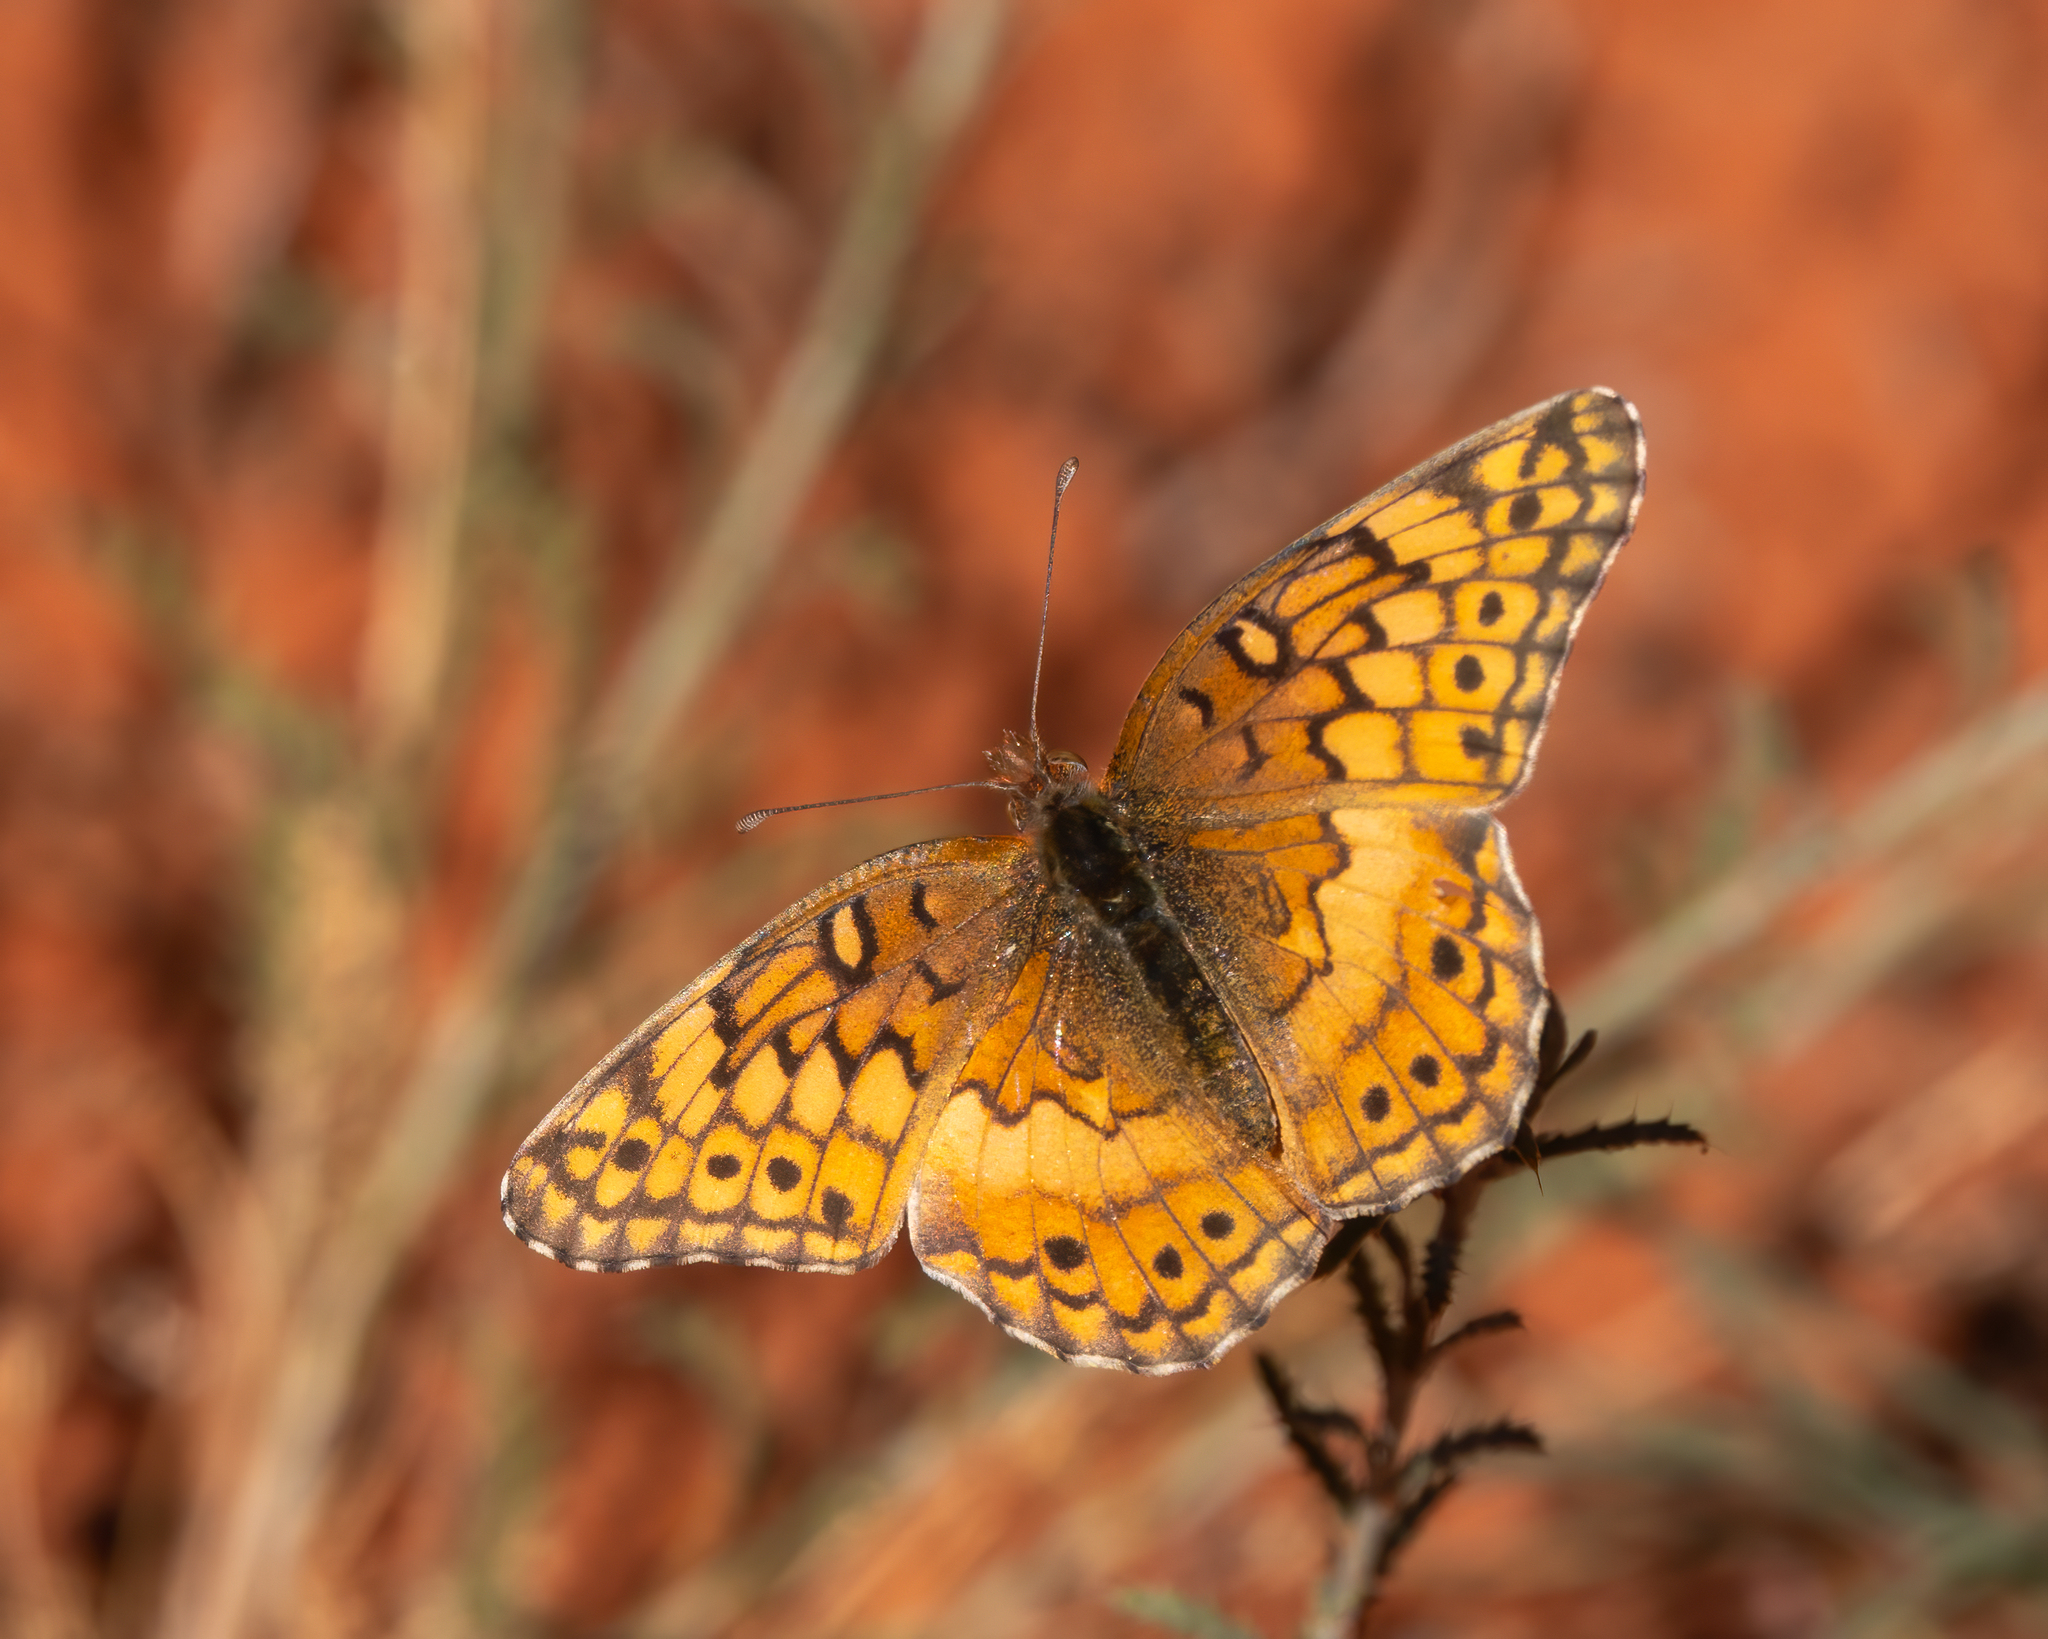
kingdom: Animalia
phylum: Arthropoda
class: Insecta
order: Lepidoptera
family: Nymphalidae
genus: Euptoieta
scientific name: Euptoieta claudia
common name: Variegated fritillary
